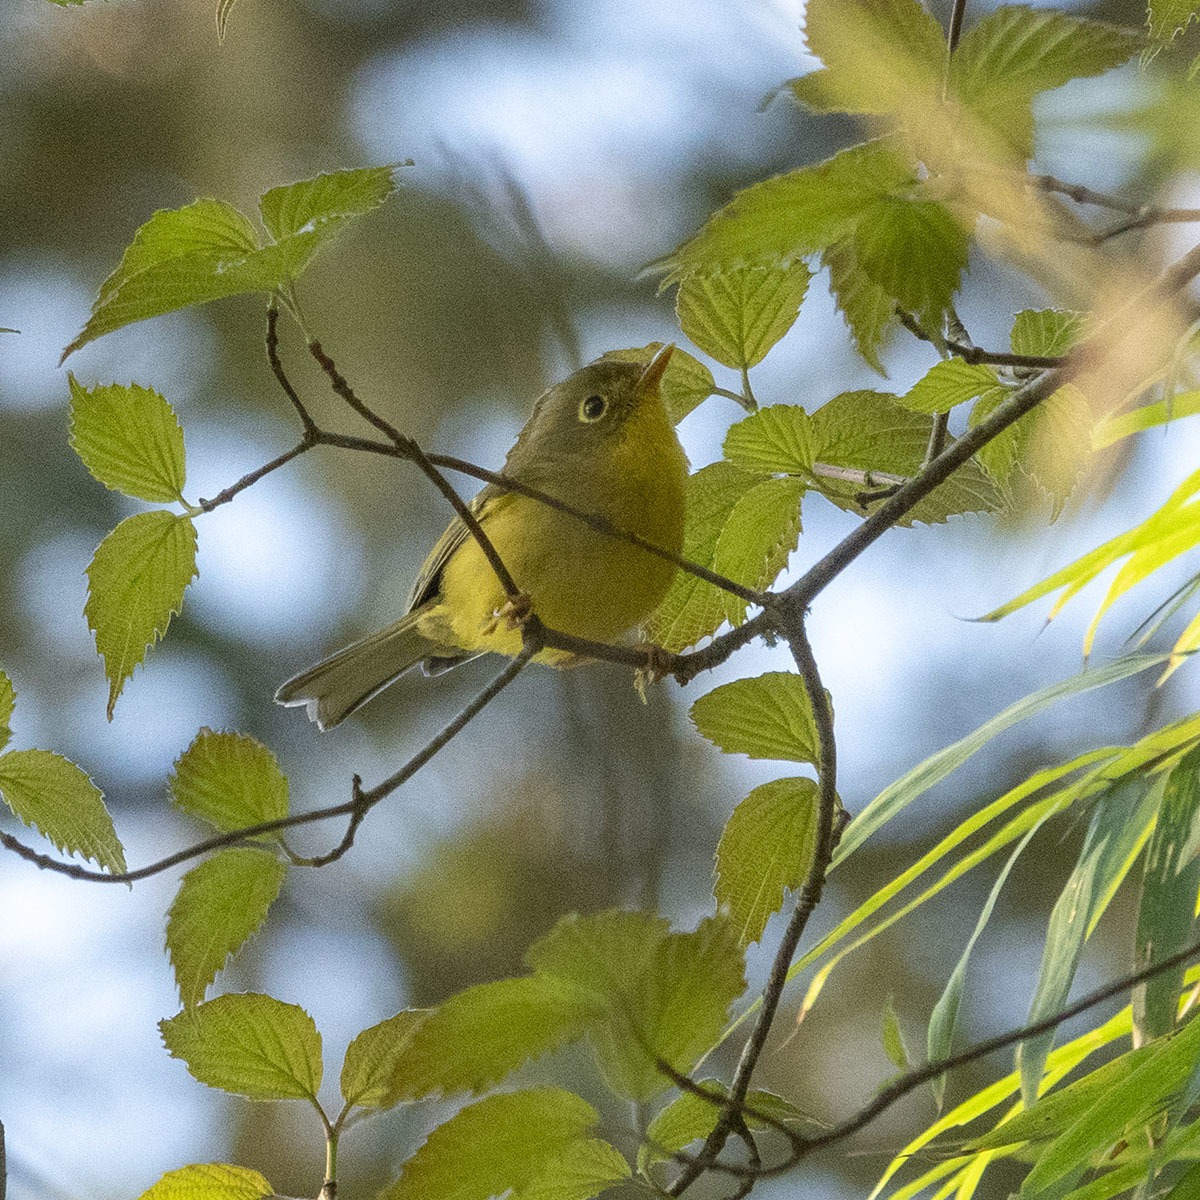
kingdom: Animalia
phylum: Chordata
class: Aves
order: Passeriformes
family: Phylloscopidae
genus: Seicercus
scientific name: Seicercus burkii
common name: Green-crowned warbler
